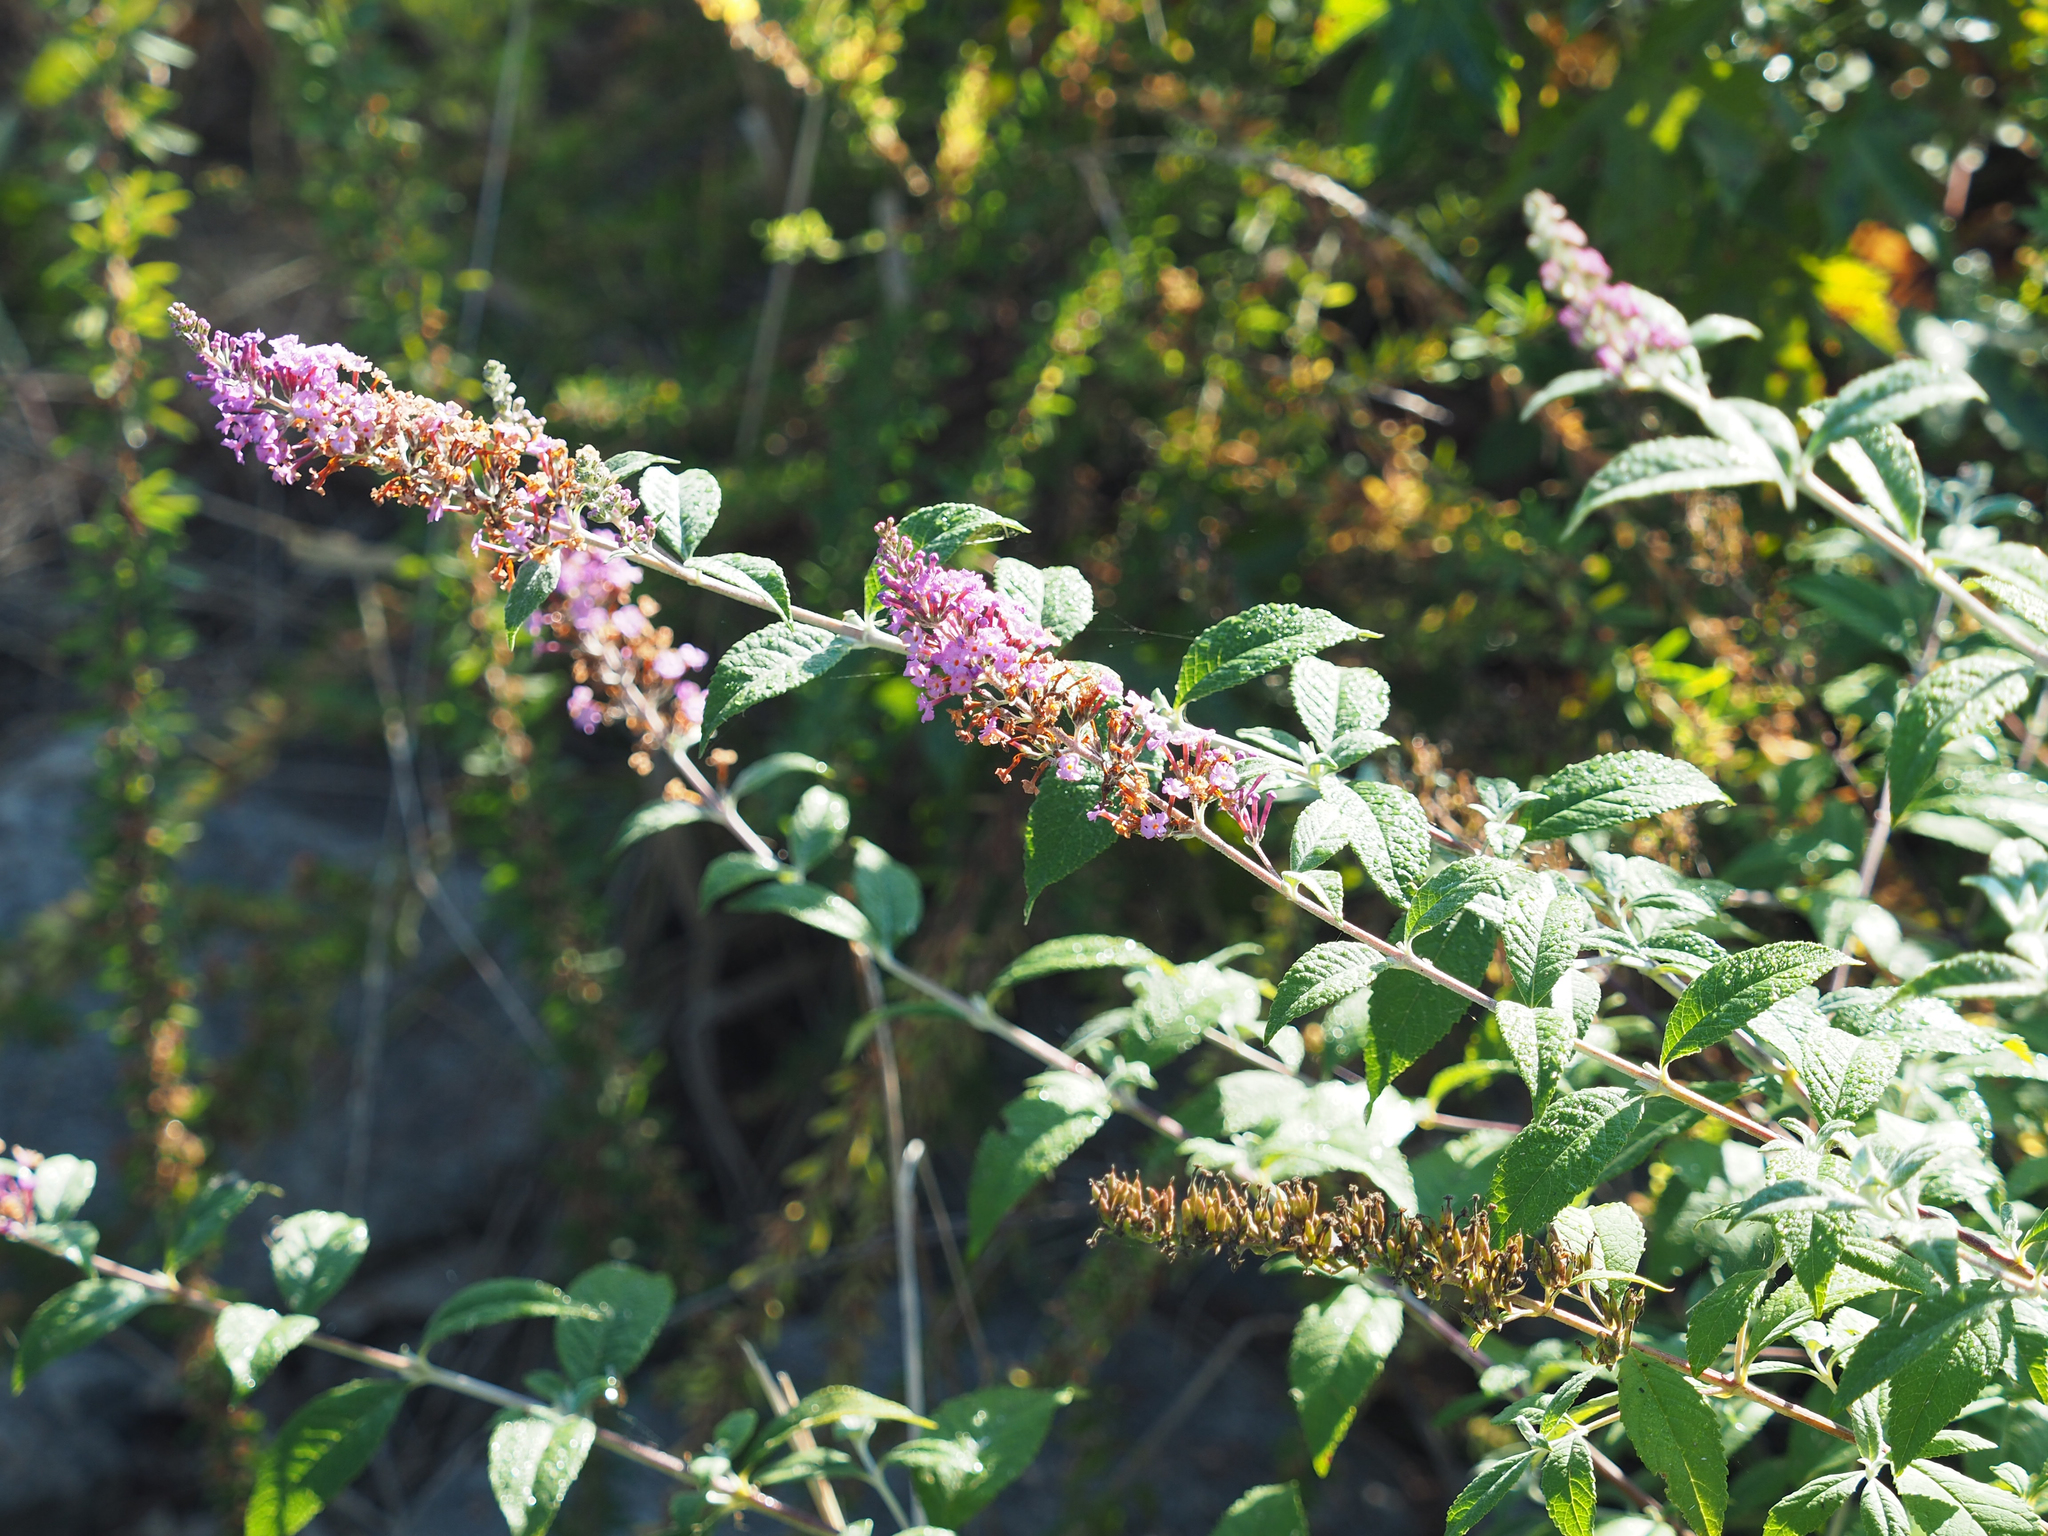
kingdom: Plantae
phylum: Tracheophyta
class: Magnoliopsida
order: Lamiales
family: Scrophulariaceae
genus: Buddleja
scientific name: Buddleja davidii
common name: Butterfly-bush
